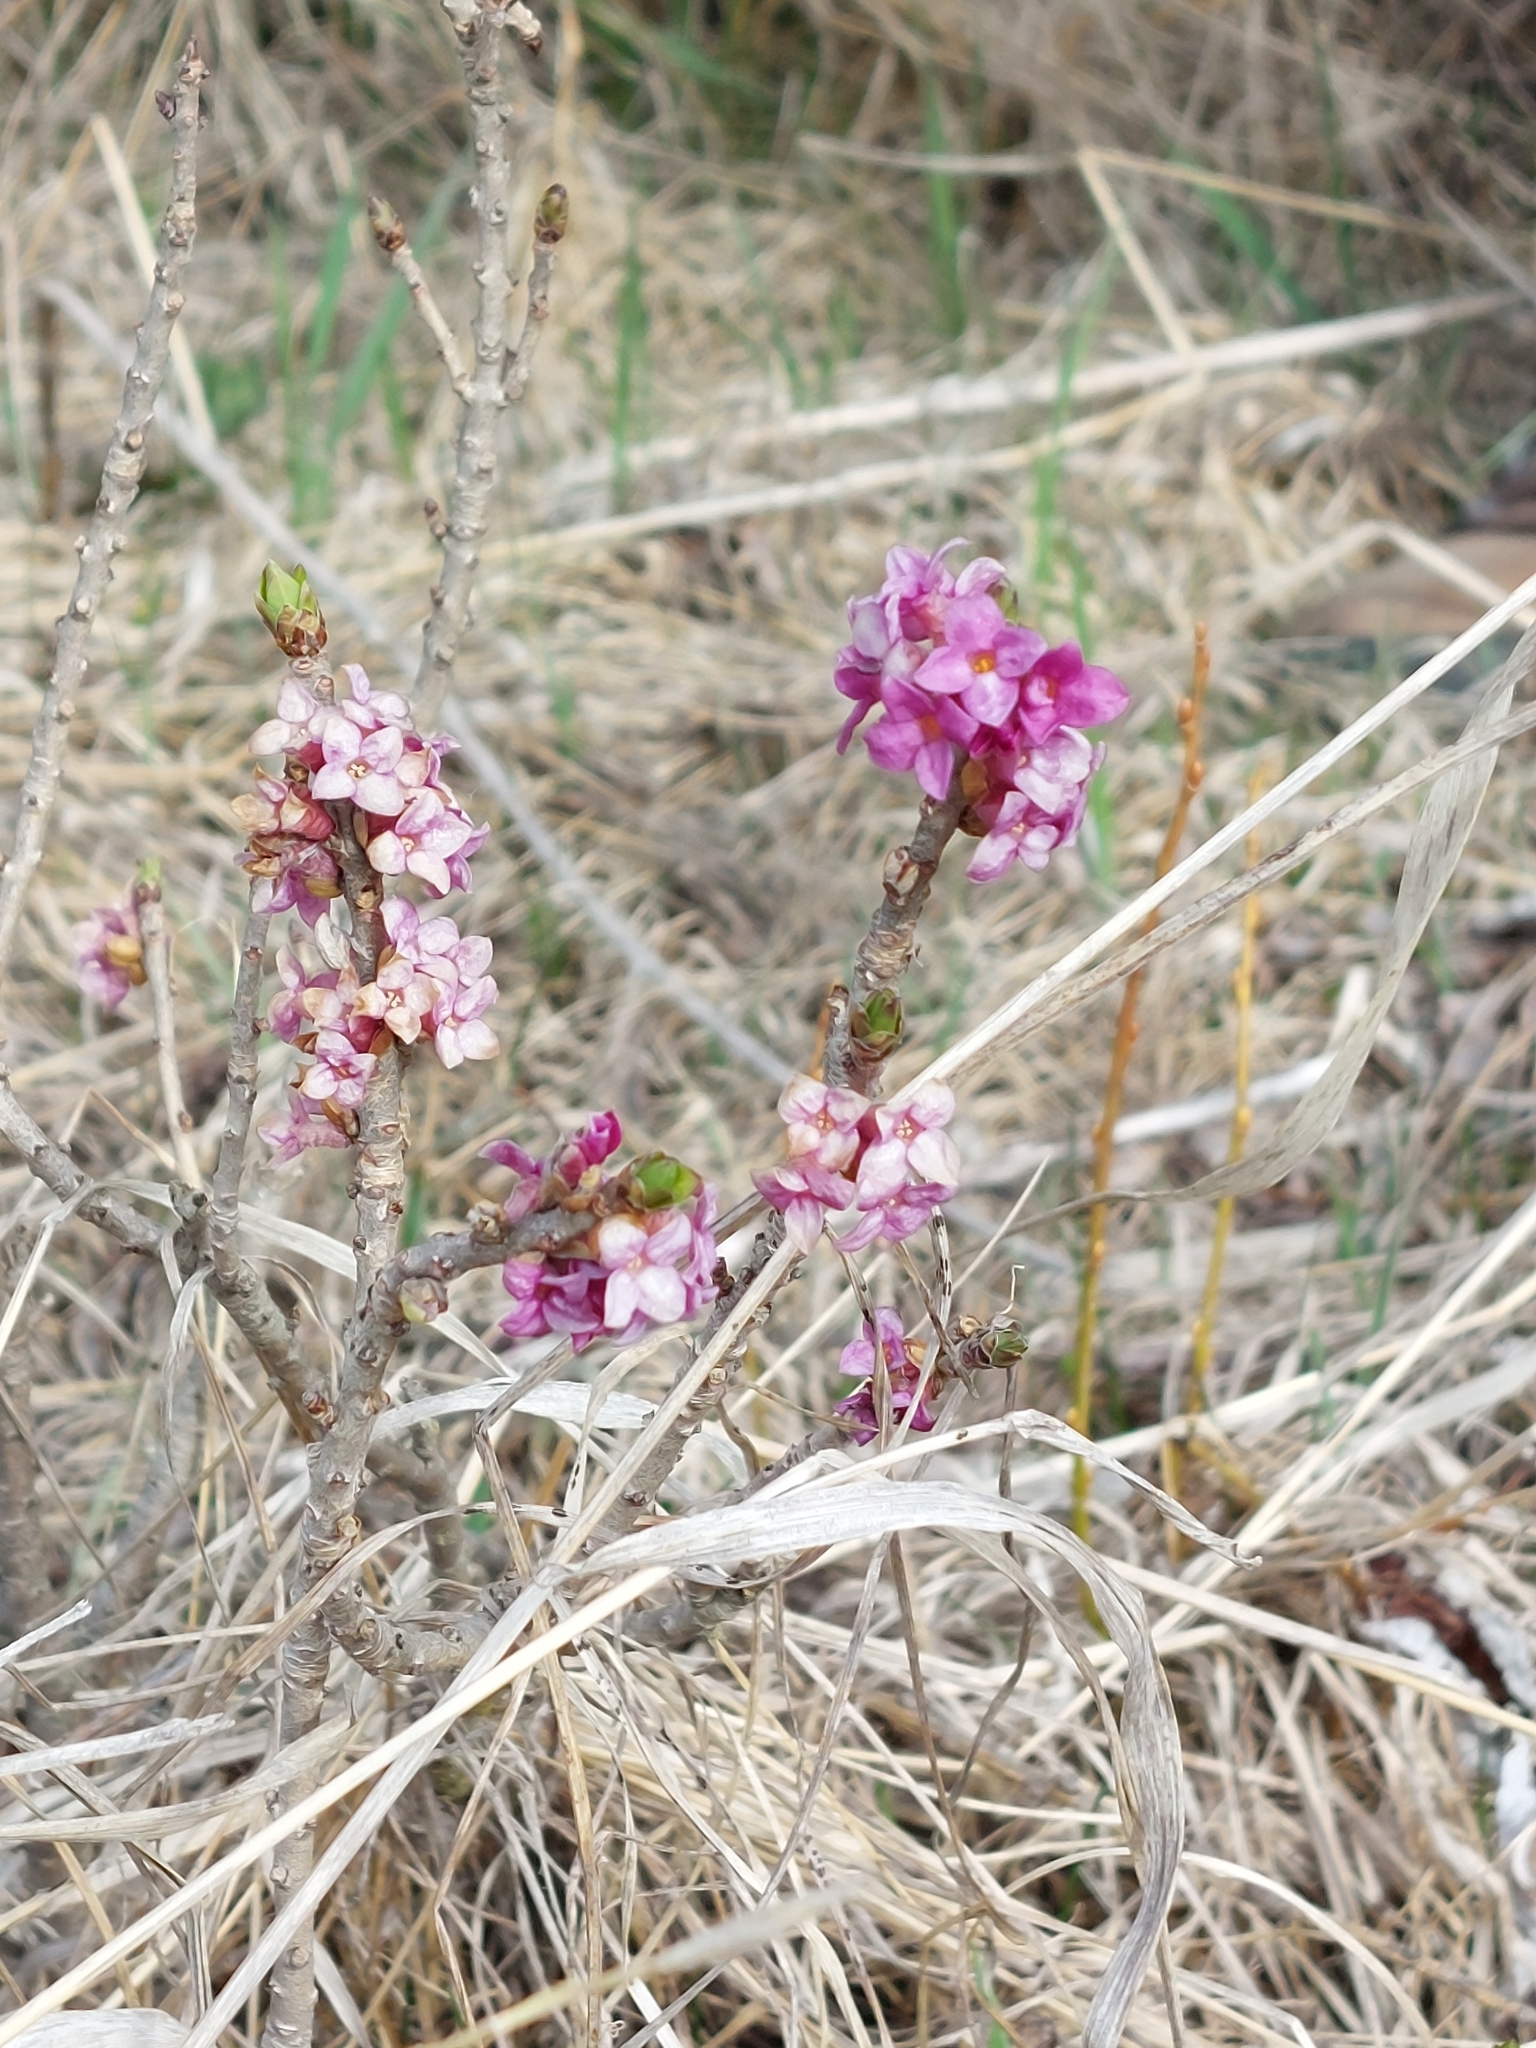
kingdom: Plantae
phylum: Tracheophyta
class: Magnoliopsida
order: Malvales
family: Thymelaeaceae
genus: Daphne
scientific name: Daphne mezereum
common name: Mezereon
